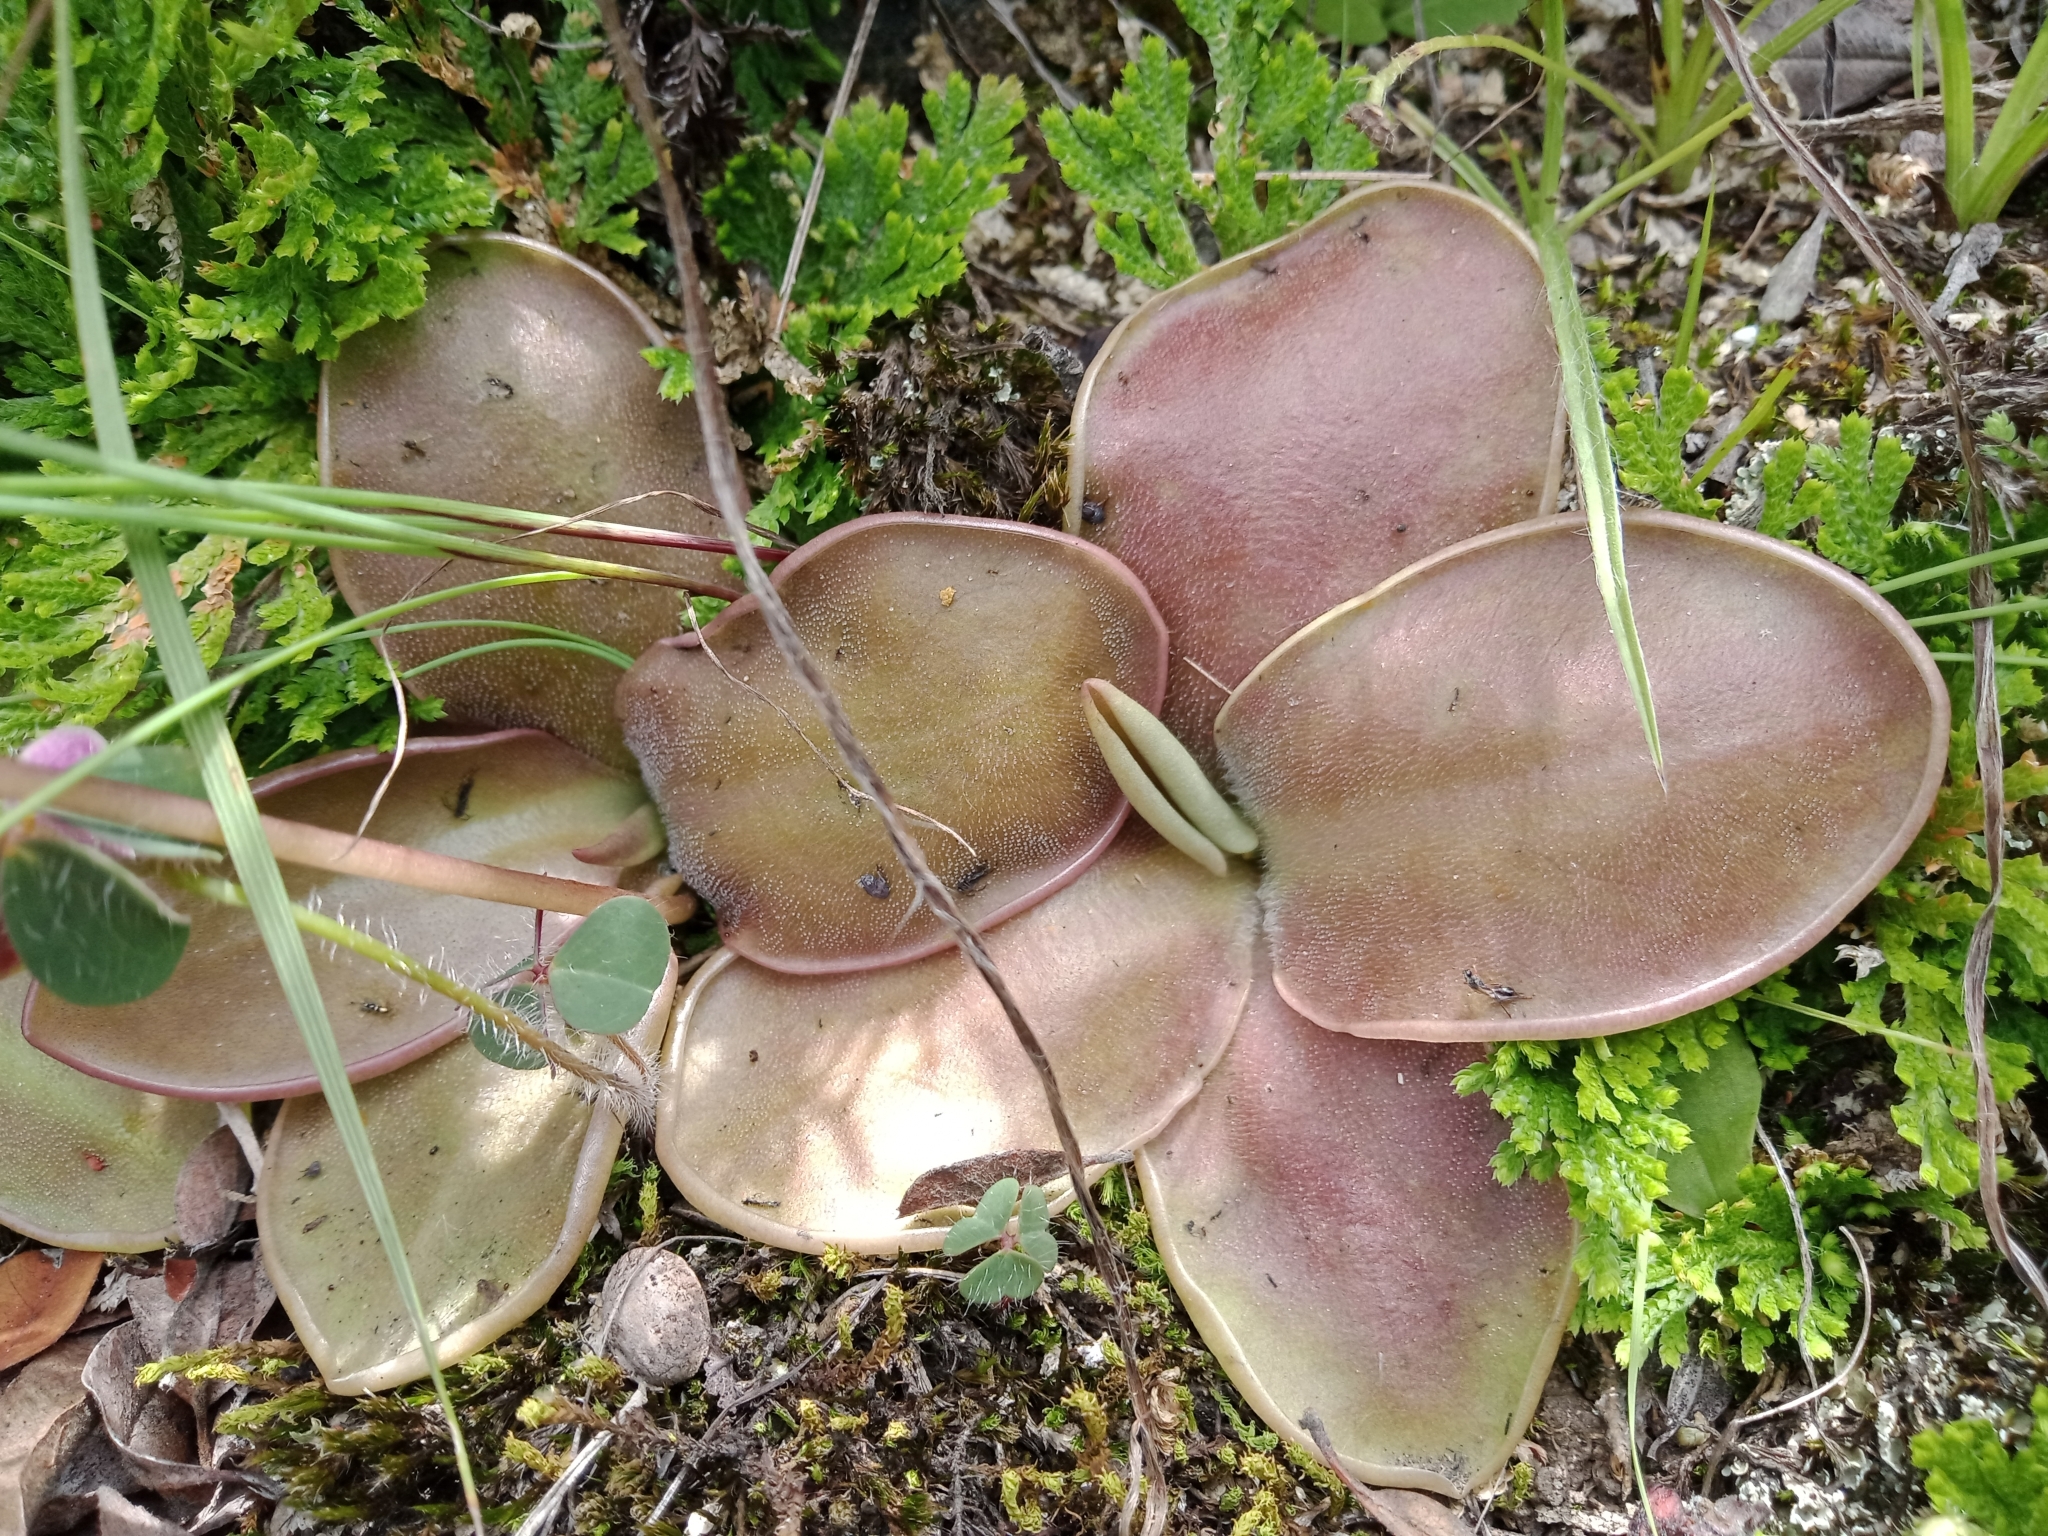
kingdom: Plantae
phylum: Tracheophyta
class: Magnoliopsida
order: Lamiales
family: Lentibulariaceae
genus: Pinguicula
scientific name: Pinguicula moranensis
